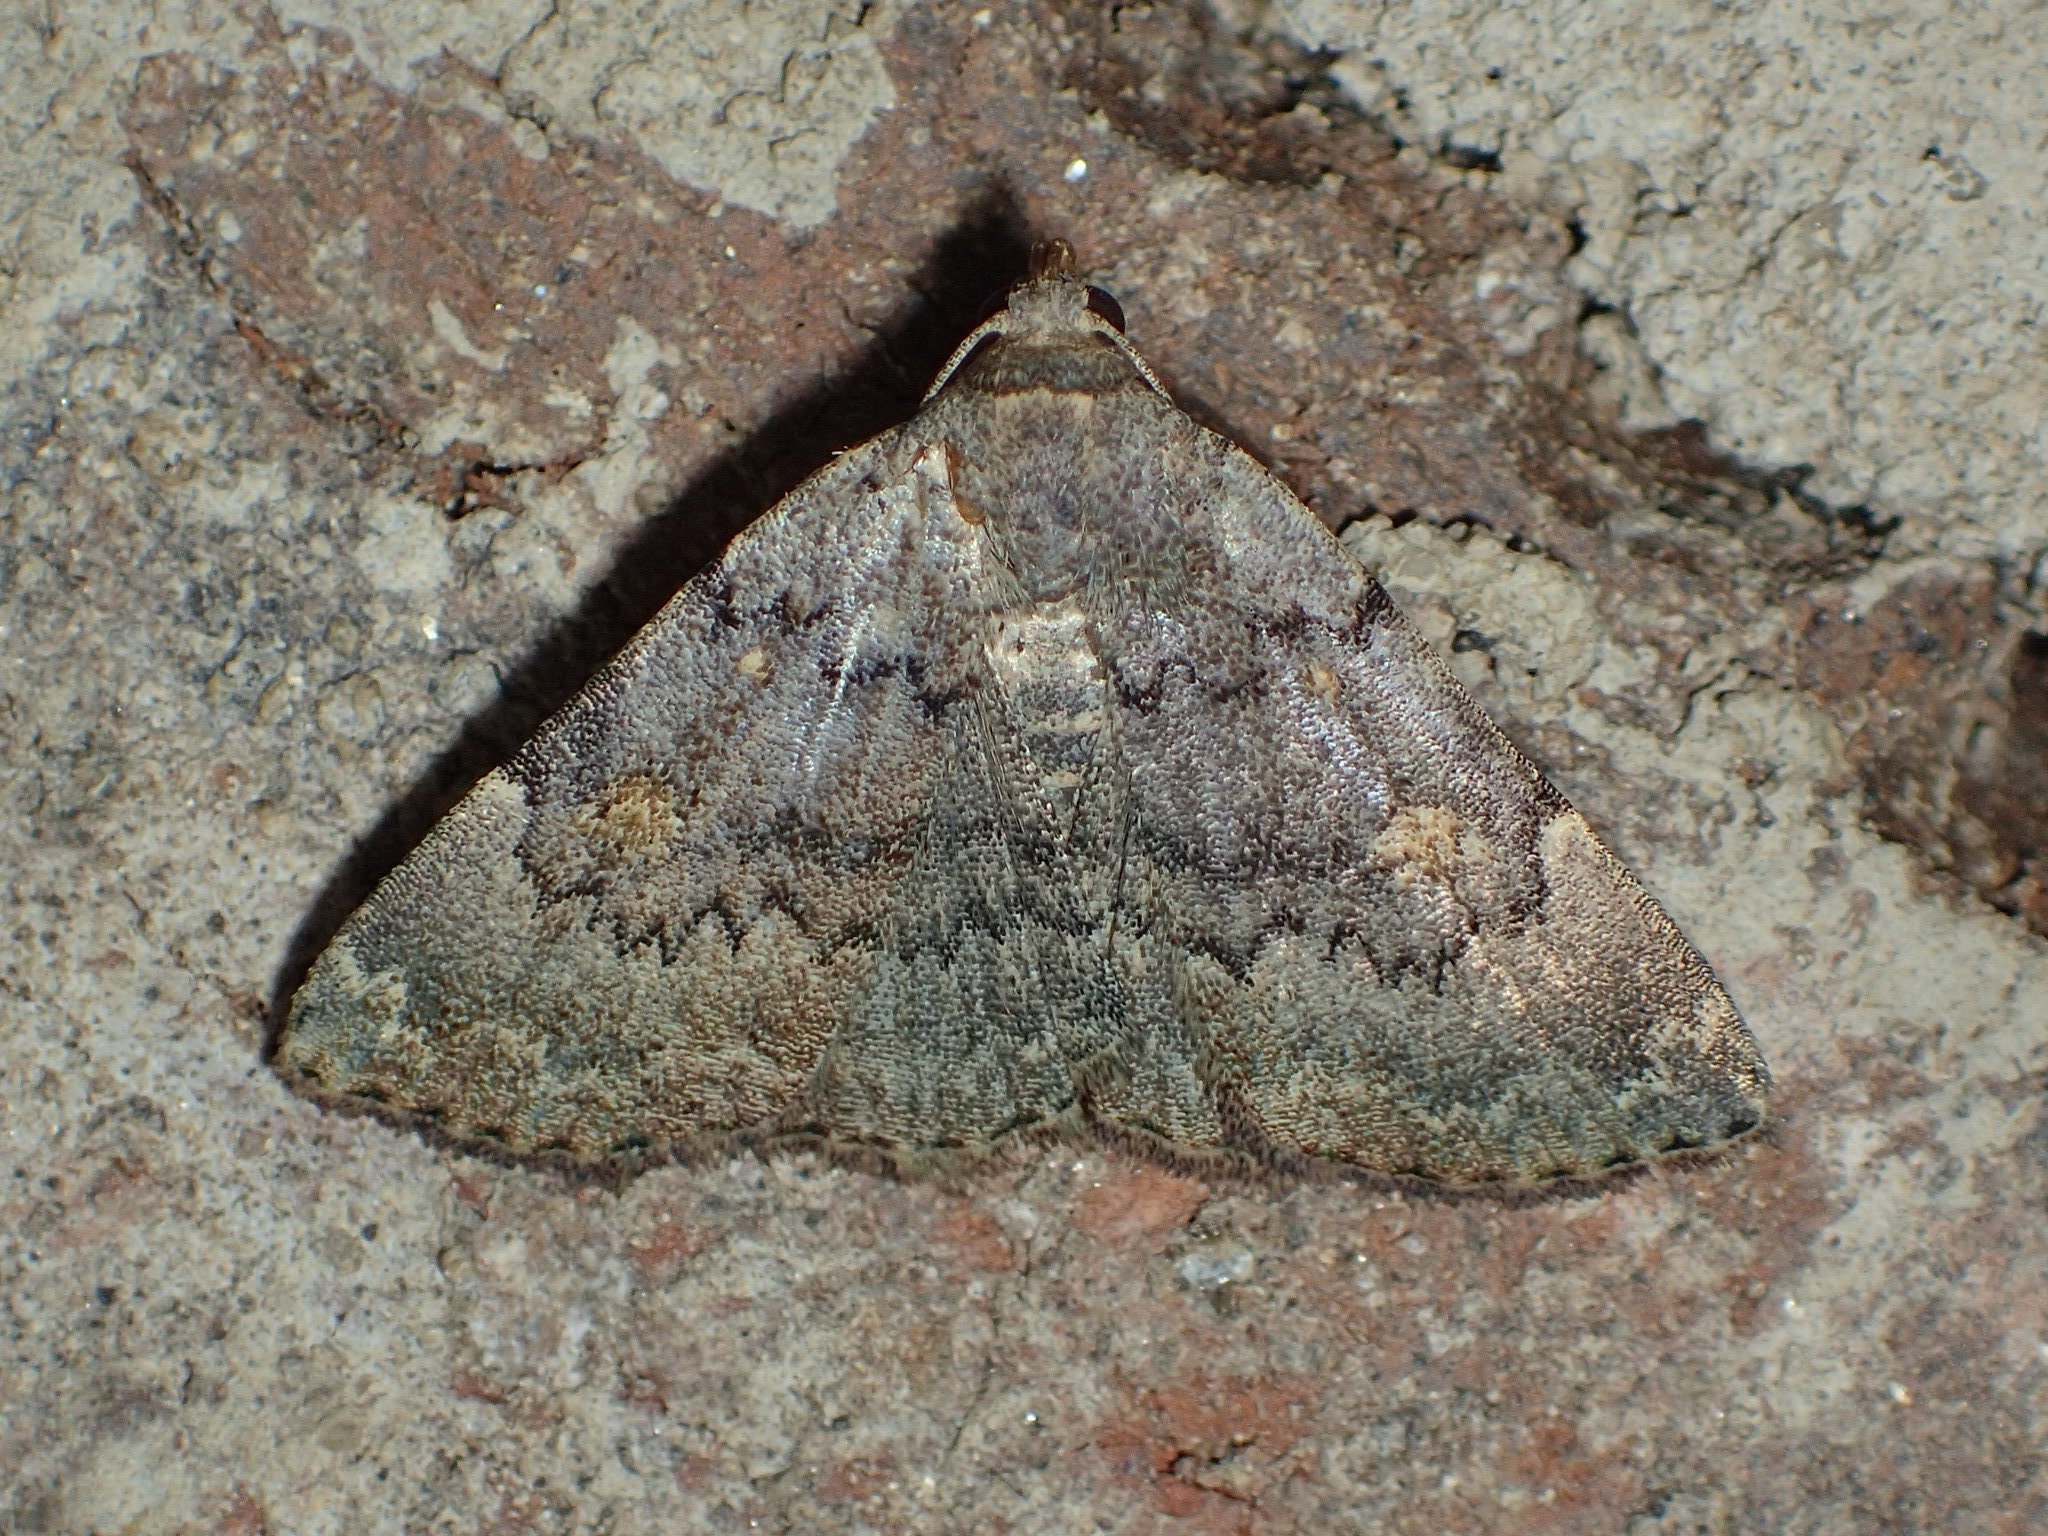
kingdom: Animalia
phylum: Arthropoda
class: Insecta
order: Lepidoptera
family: Erebidae
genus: Idia
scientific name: Idia aemula
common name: Common idia moth
